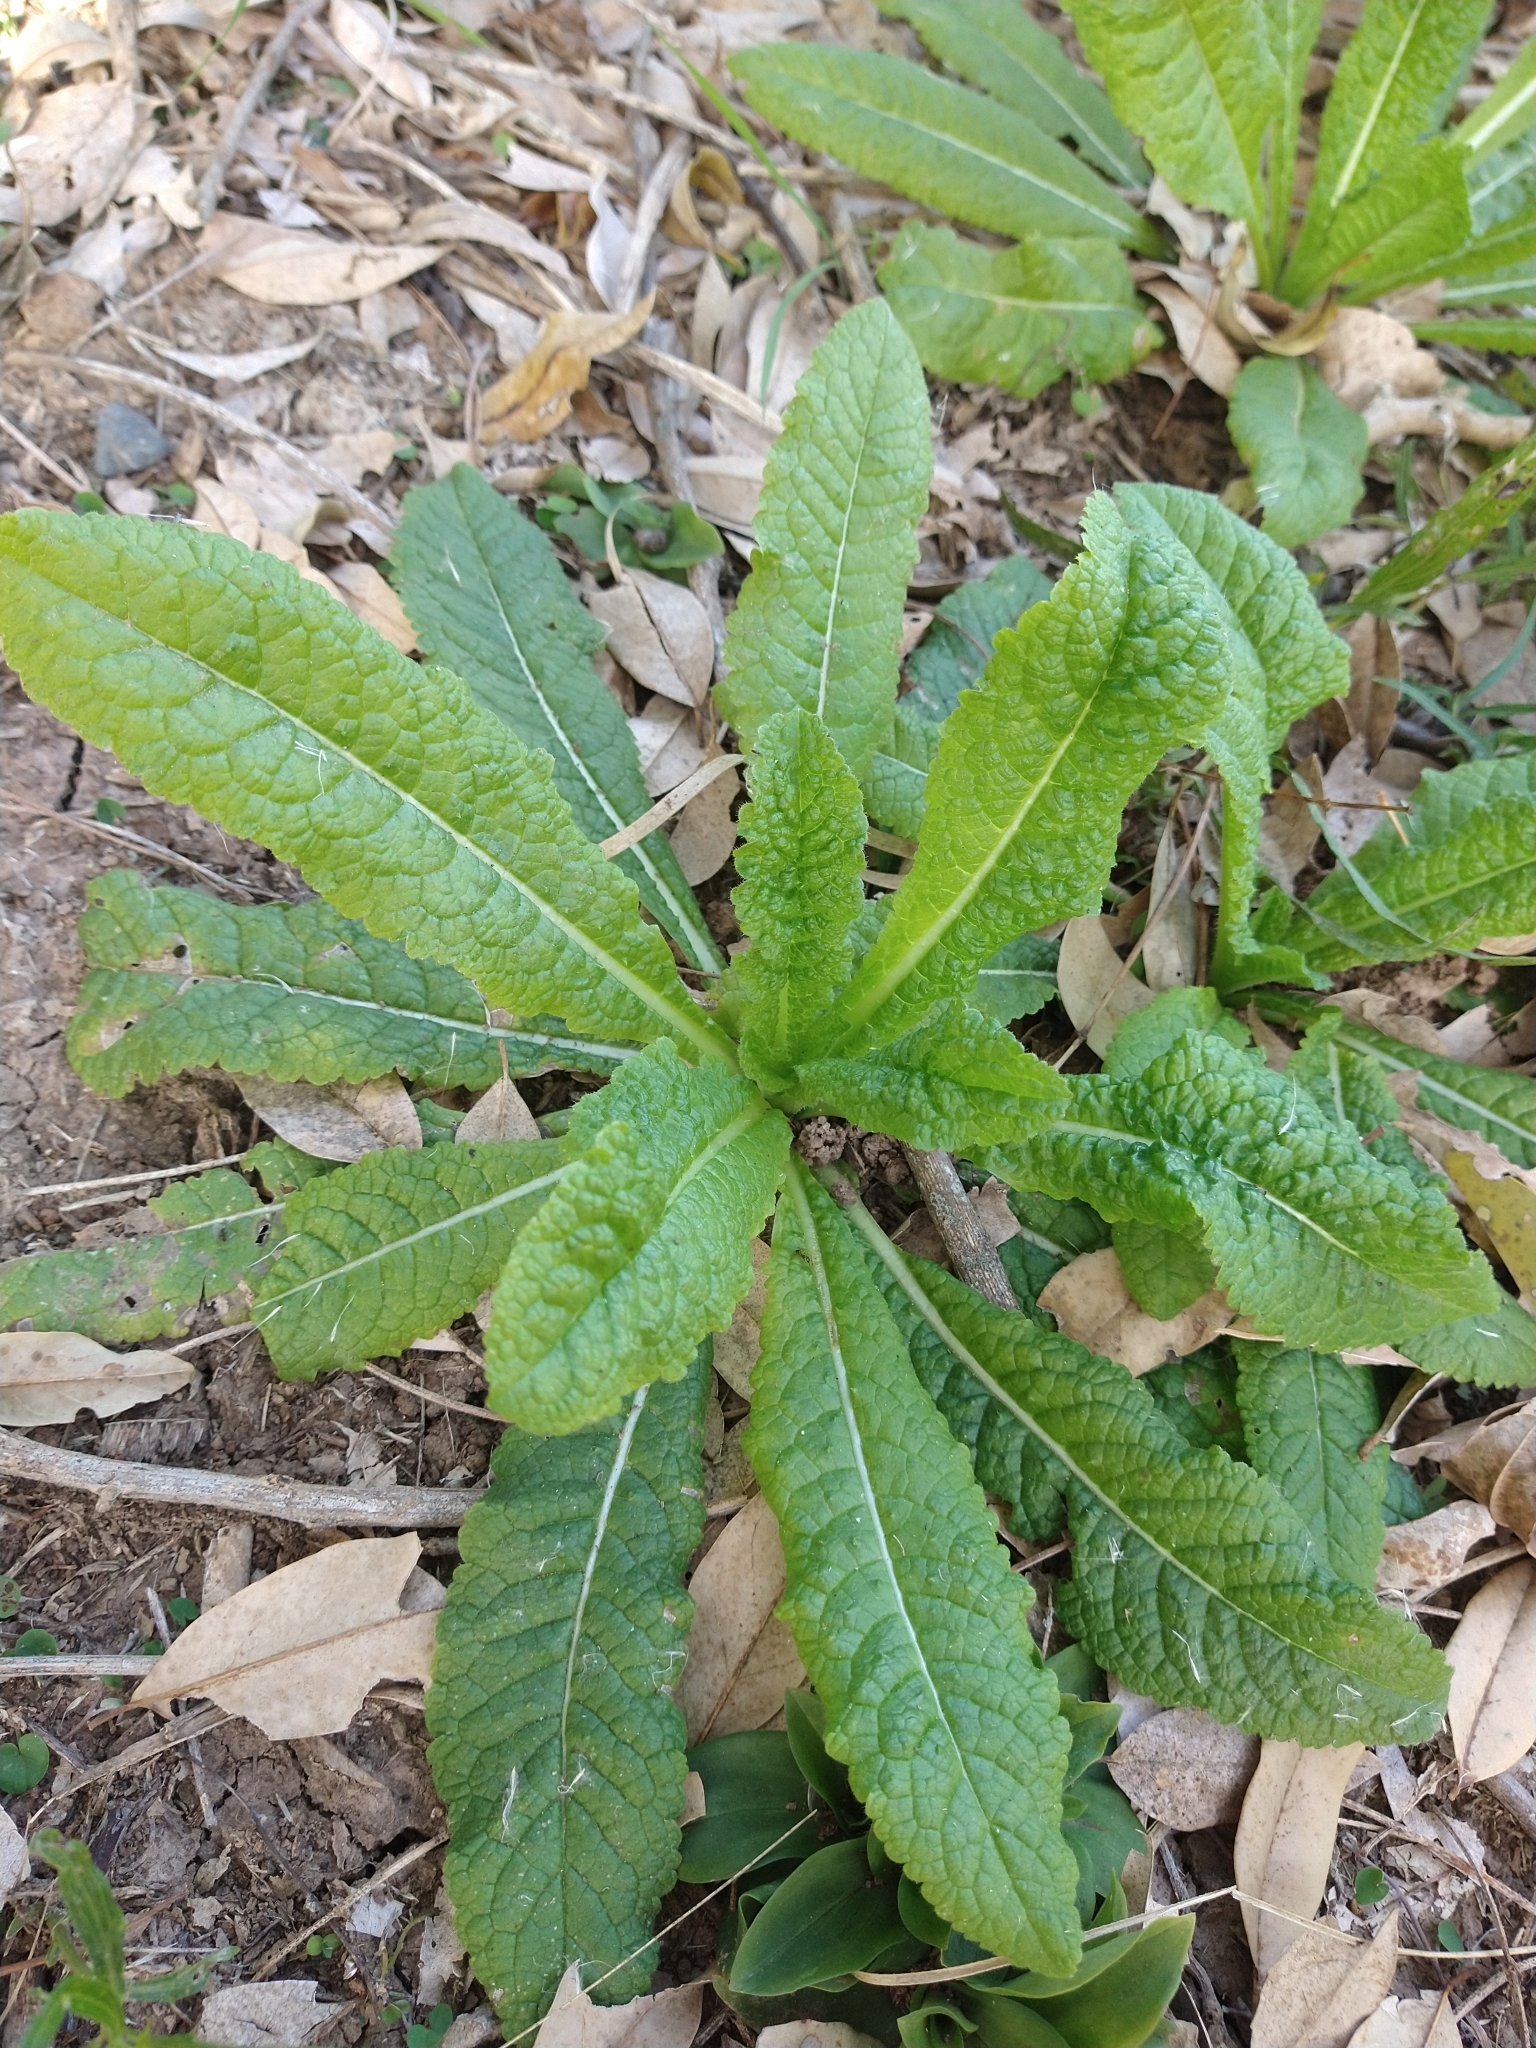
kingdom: Plantae
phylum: Tracheophyta
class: Magnoliopsida
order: Dipsacales
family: Caprifoliaceae
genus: Dipsacus
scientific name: Dipsacus fullonum
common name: Teasel
